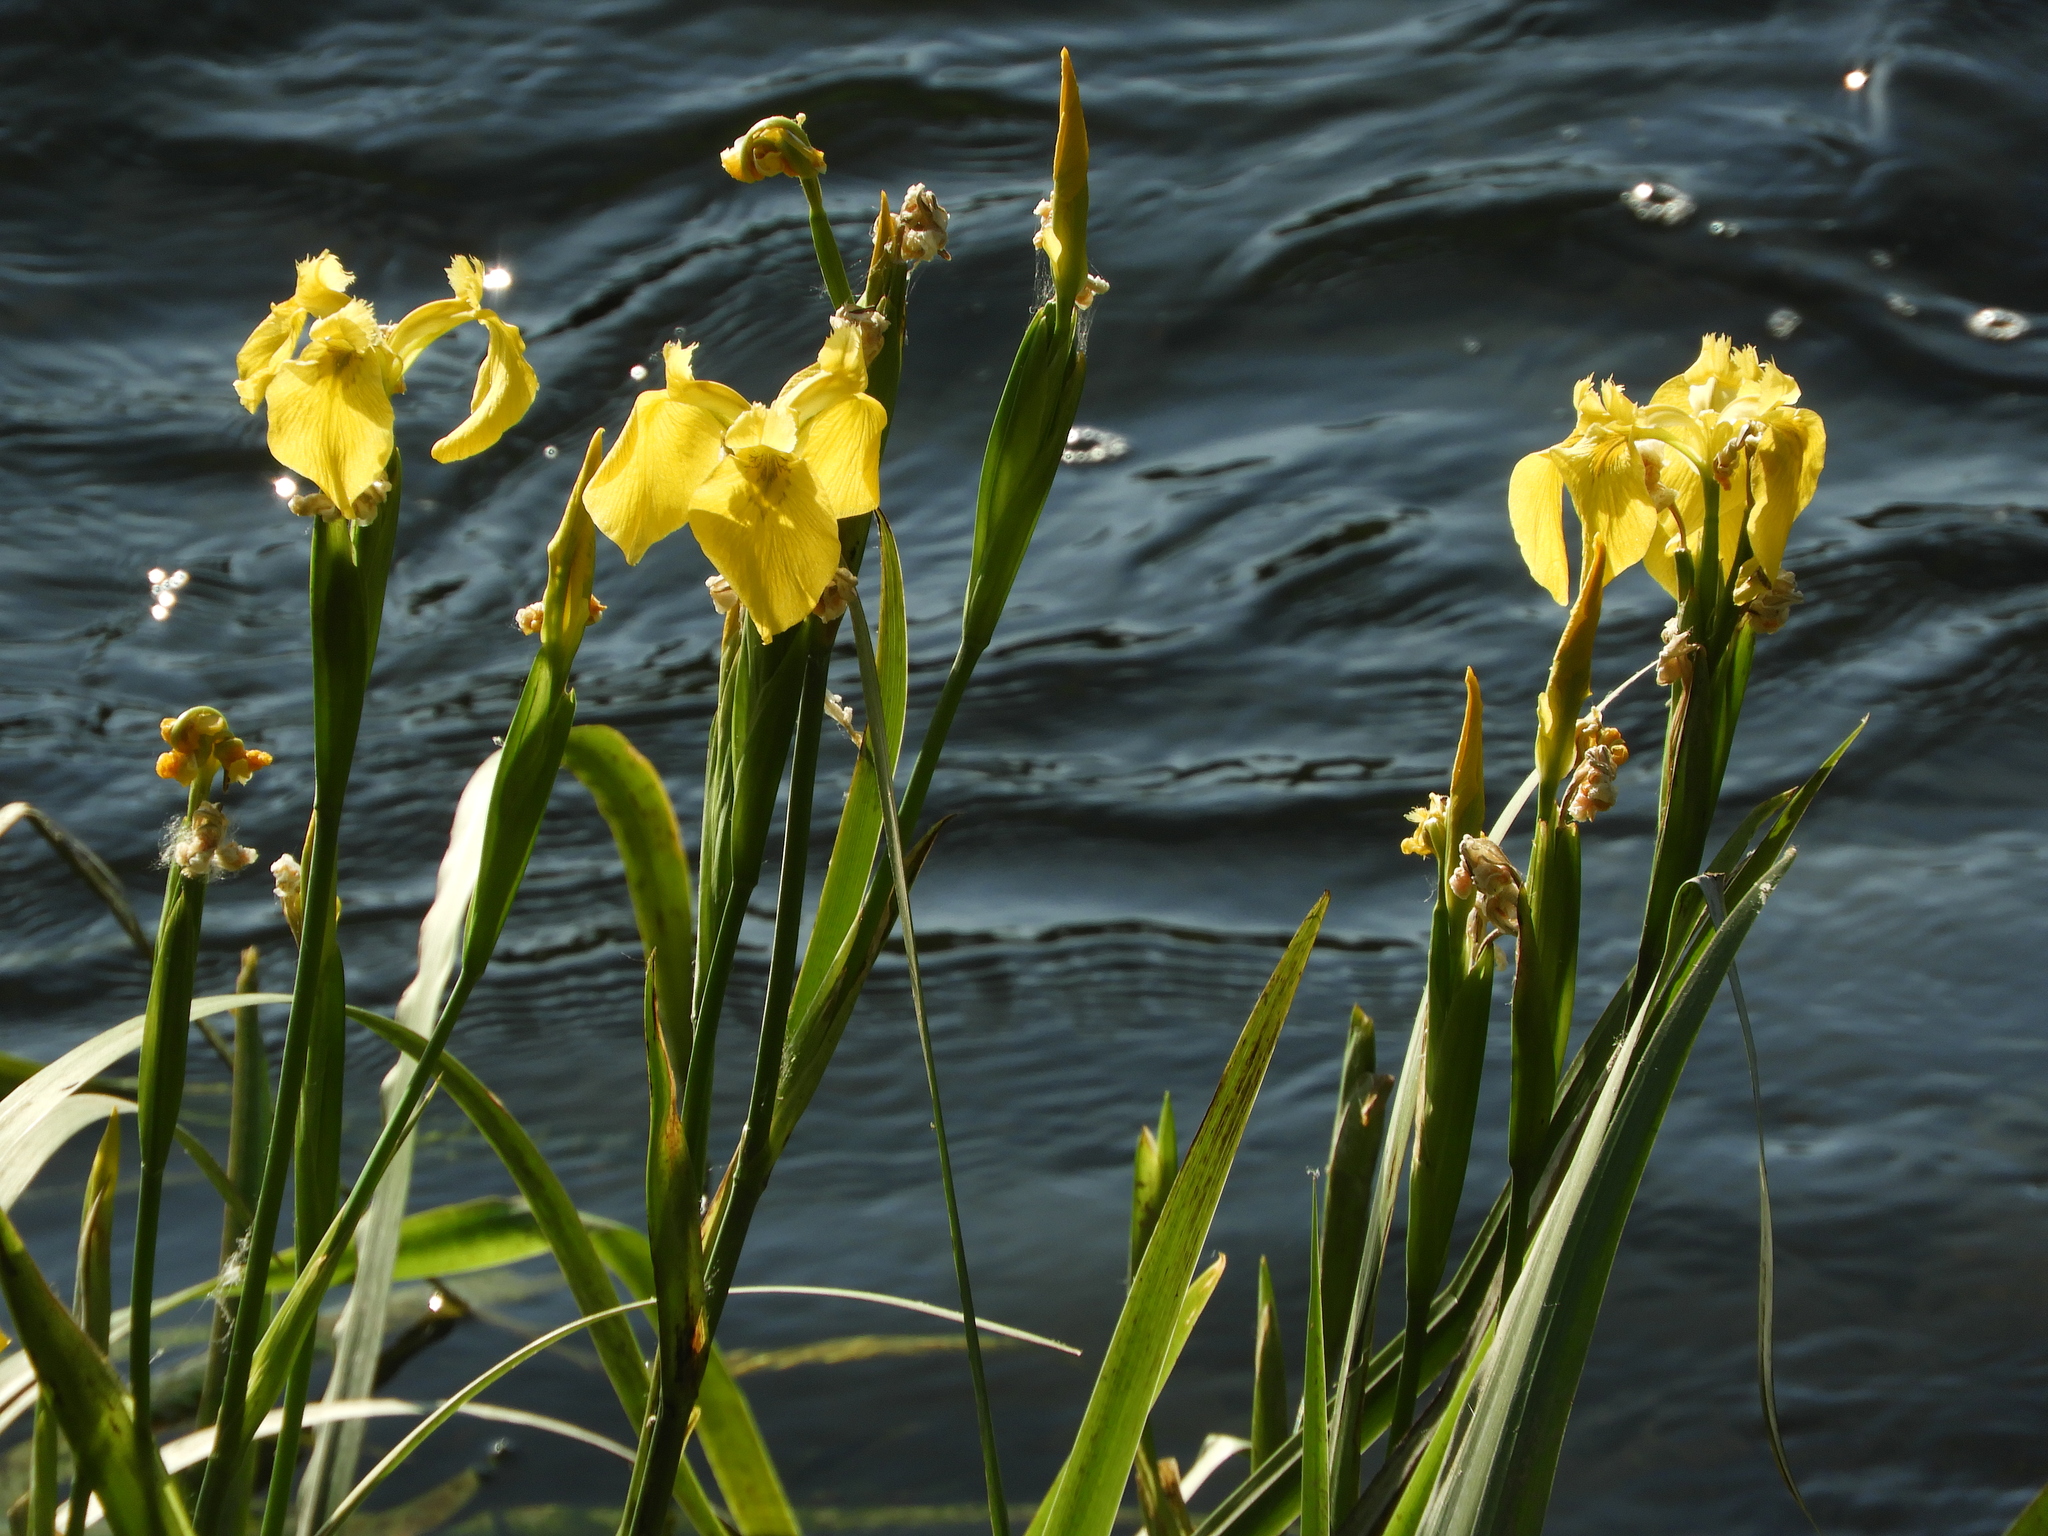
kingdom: Plantae
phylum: Tracheophyta
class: Liliopsida
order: Asparagales
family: Iridaceae
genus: Iris
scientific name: Iris pseudacorus
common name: Yellow flag
